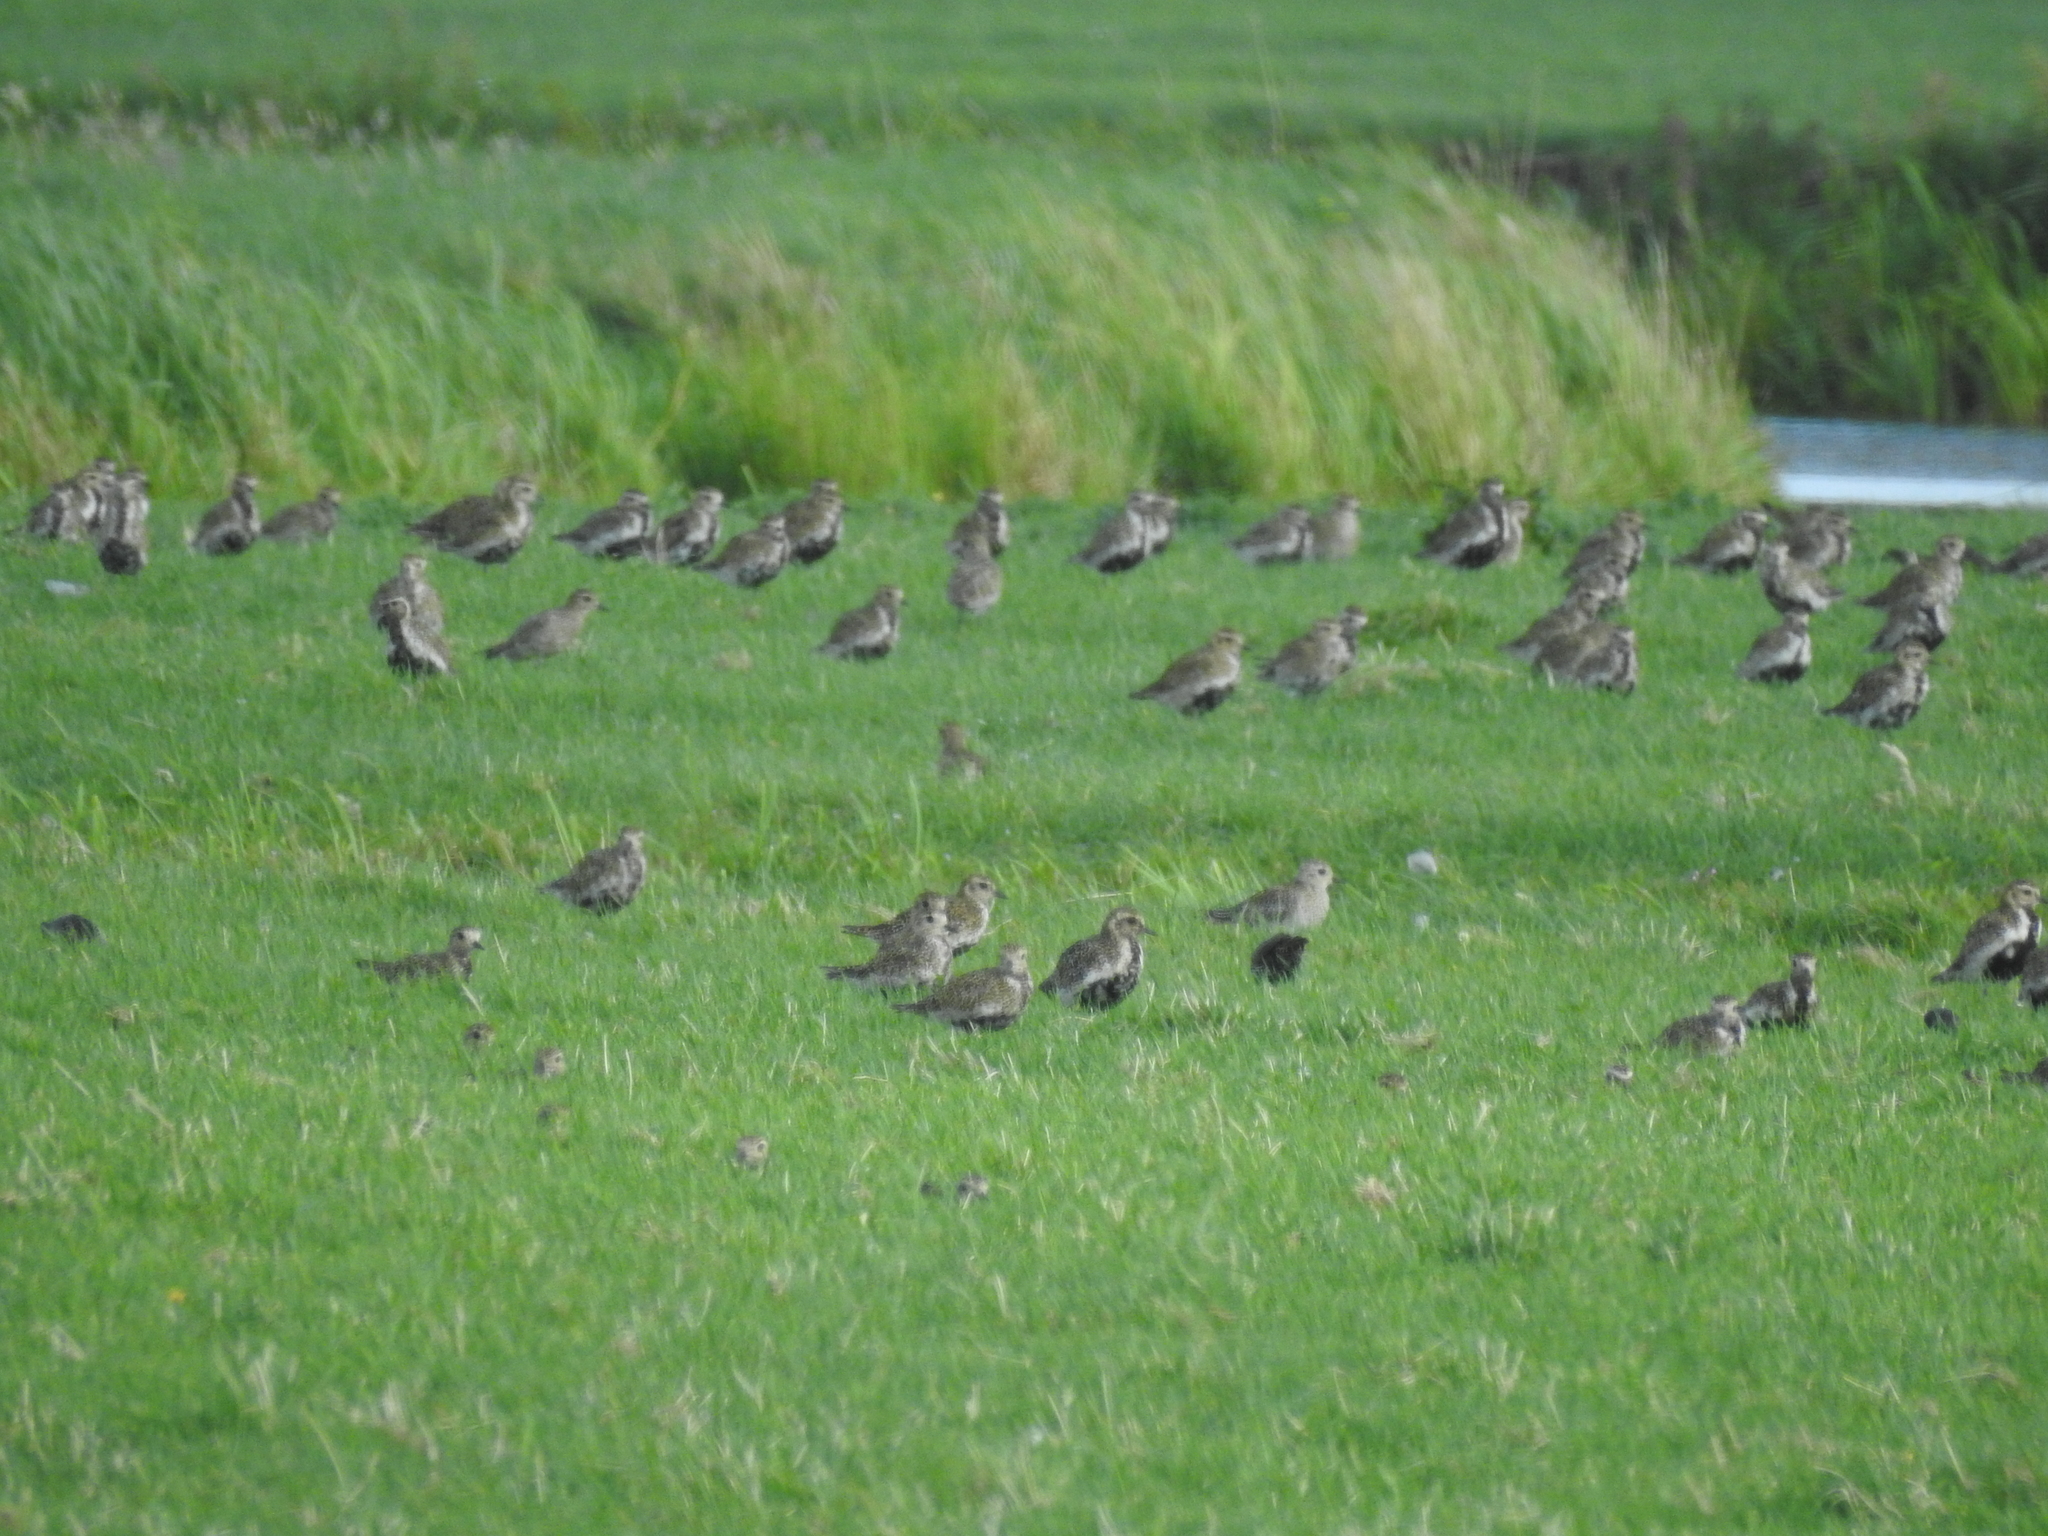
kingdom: Animalia
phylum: Chordata
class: Aves
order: Charadriiformes
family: Charadriidae
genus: Pluvialis
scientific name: Pluvialis apricaria
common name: European golden plover
